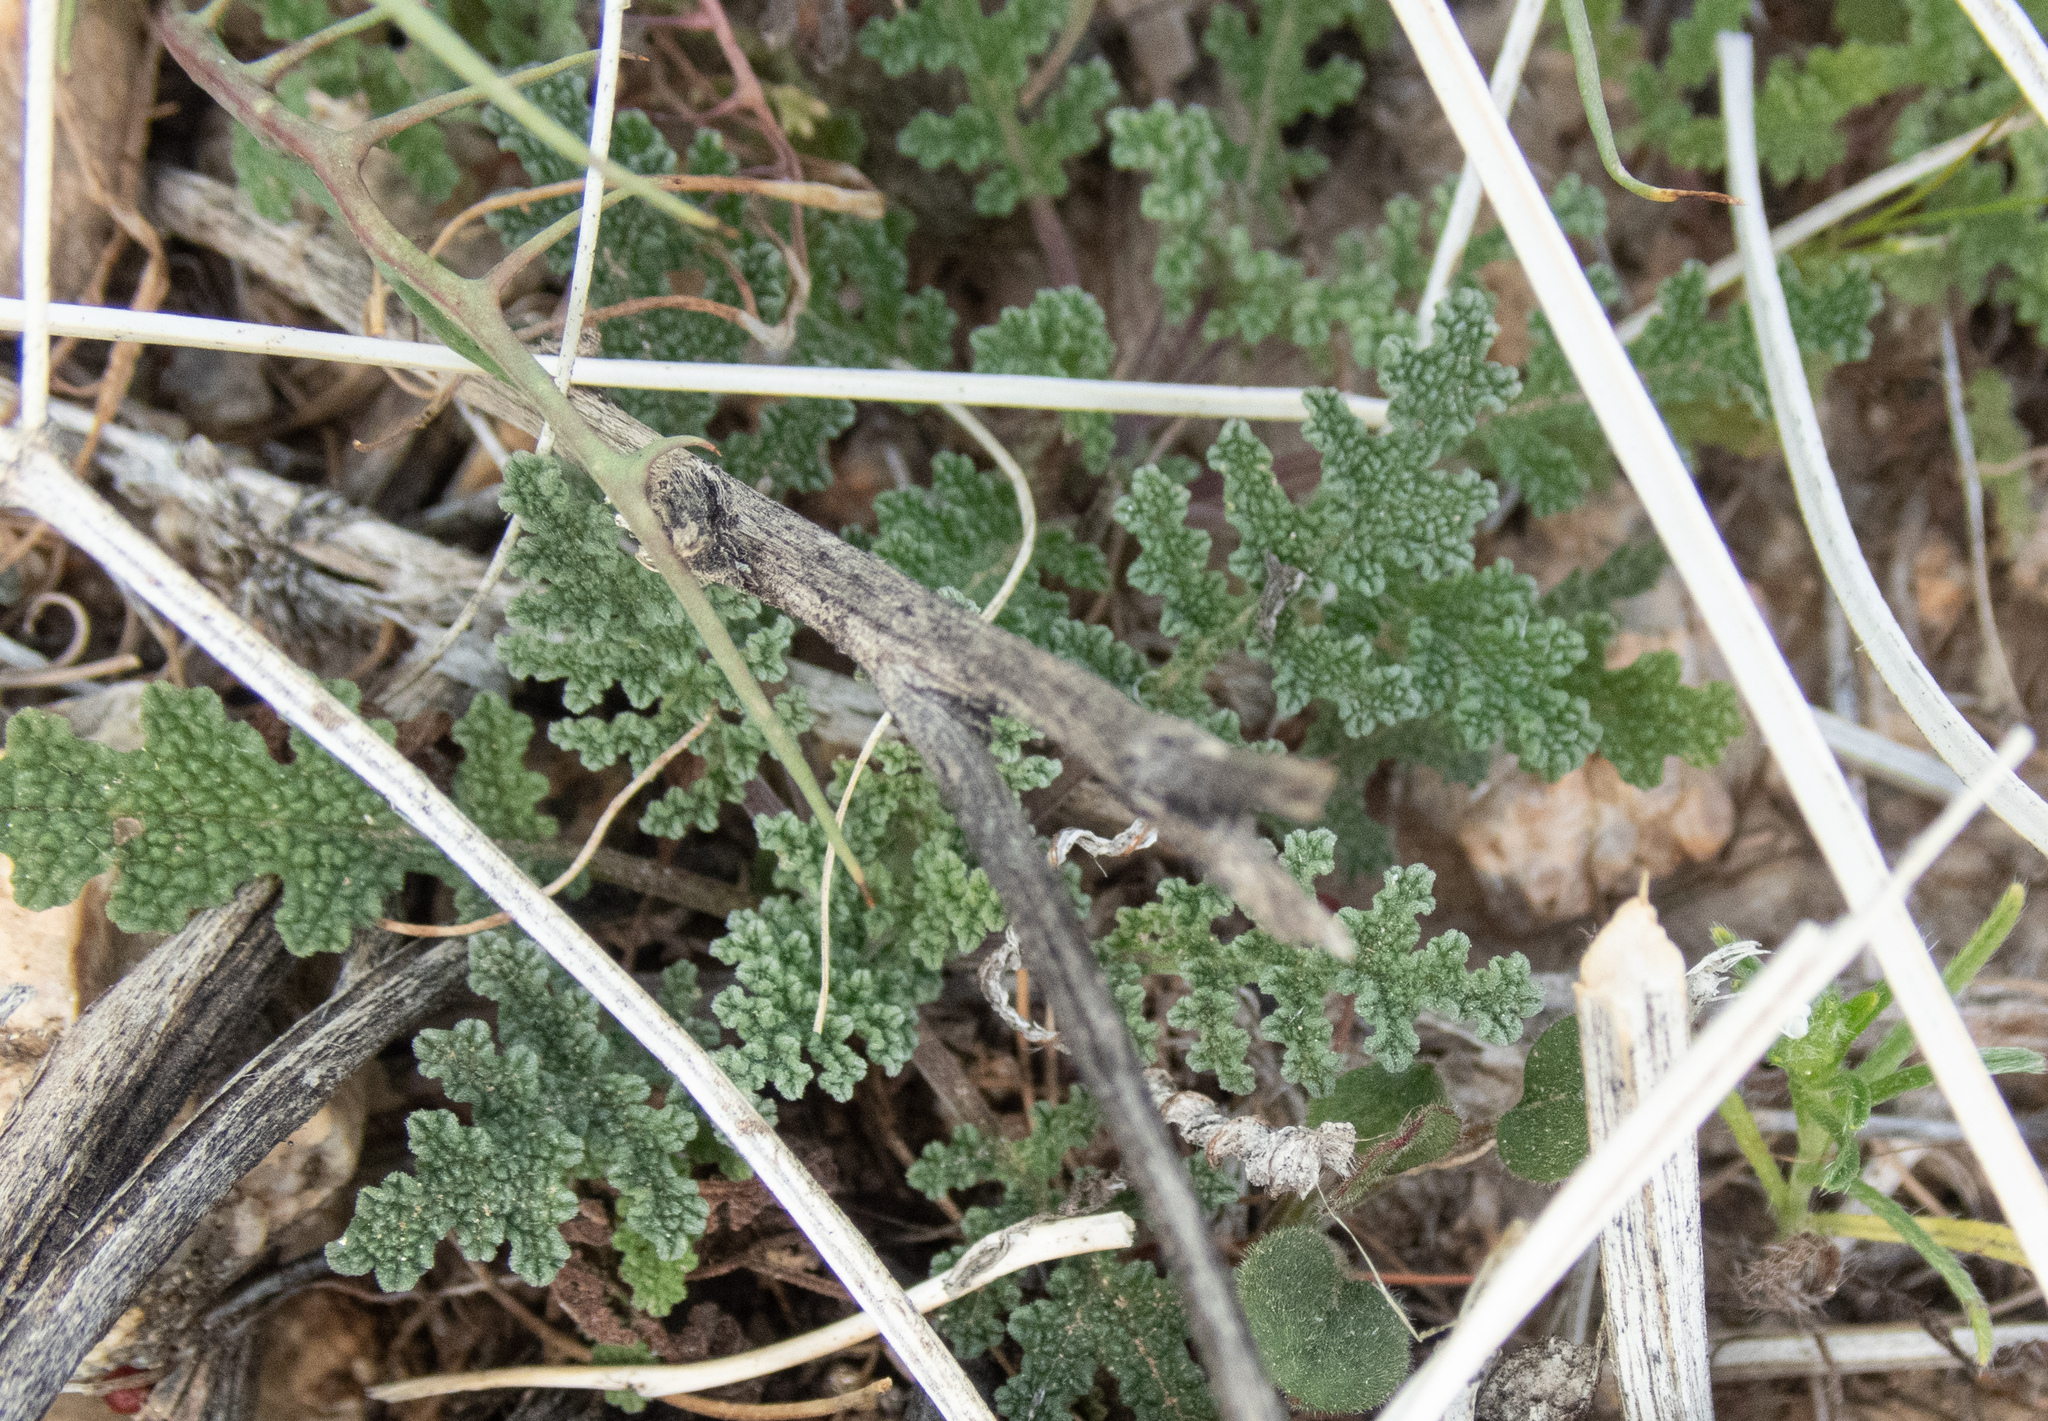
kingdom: Plantae
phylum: Tracheophyta
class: Magnoliopsida
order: Asterales
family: Asteraceae
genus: Malacothrix
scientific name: Malacothrix glabrata
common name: Smooth desert-dandelion
